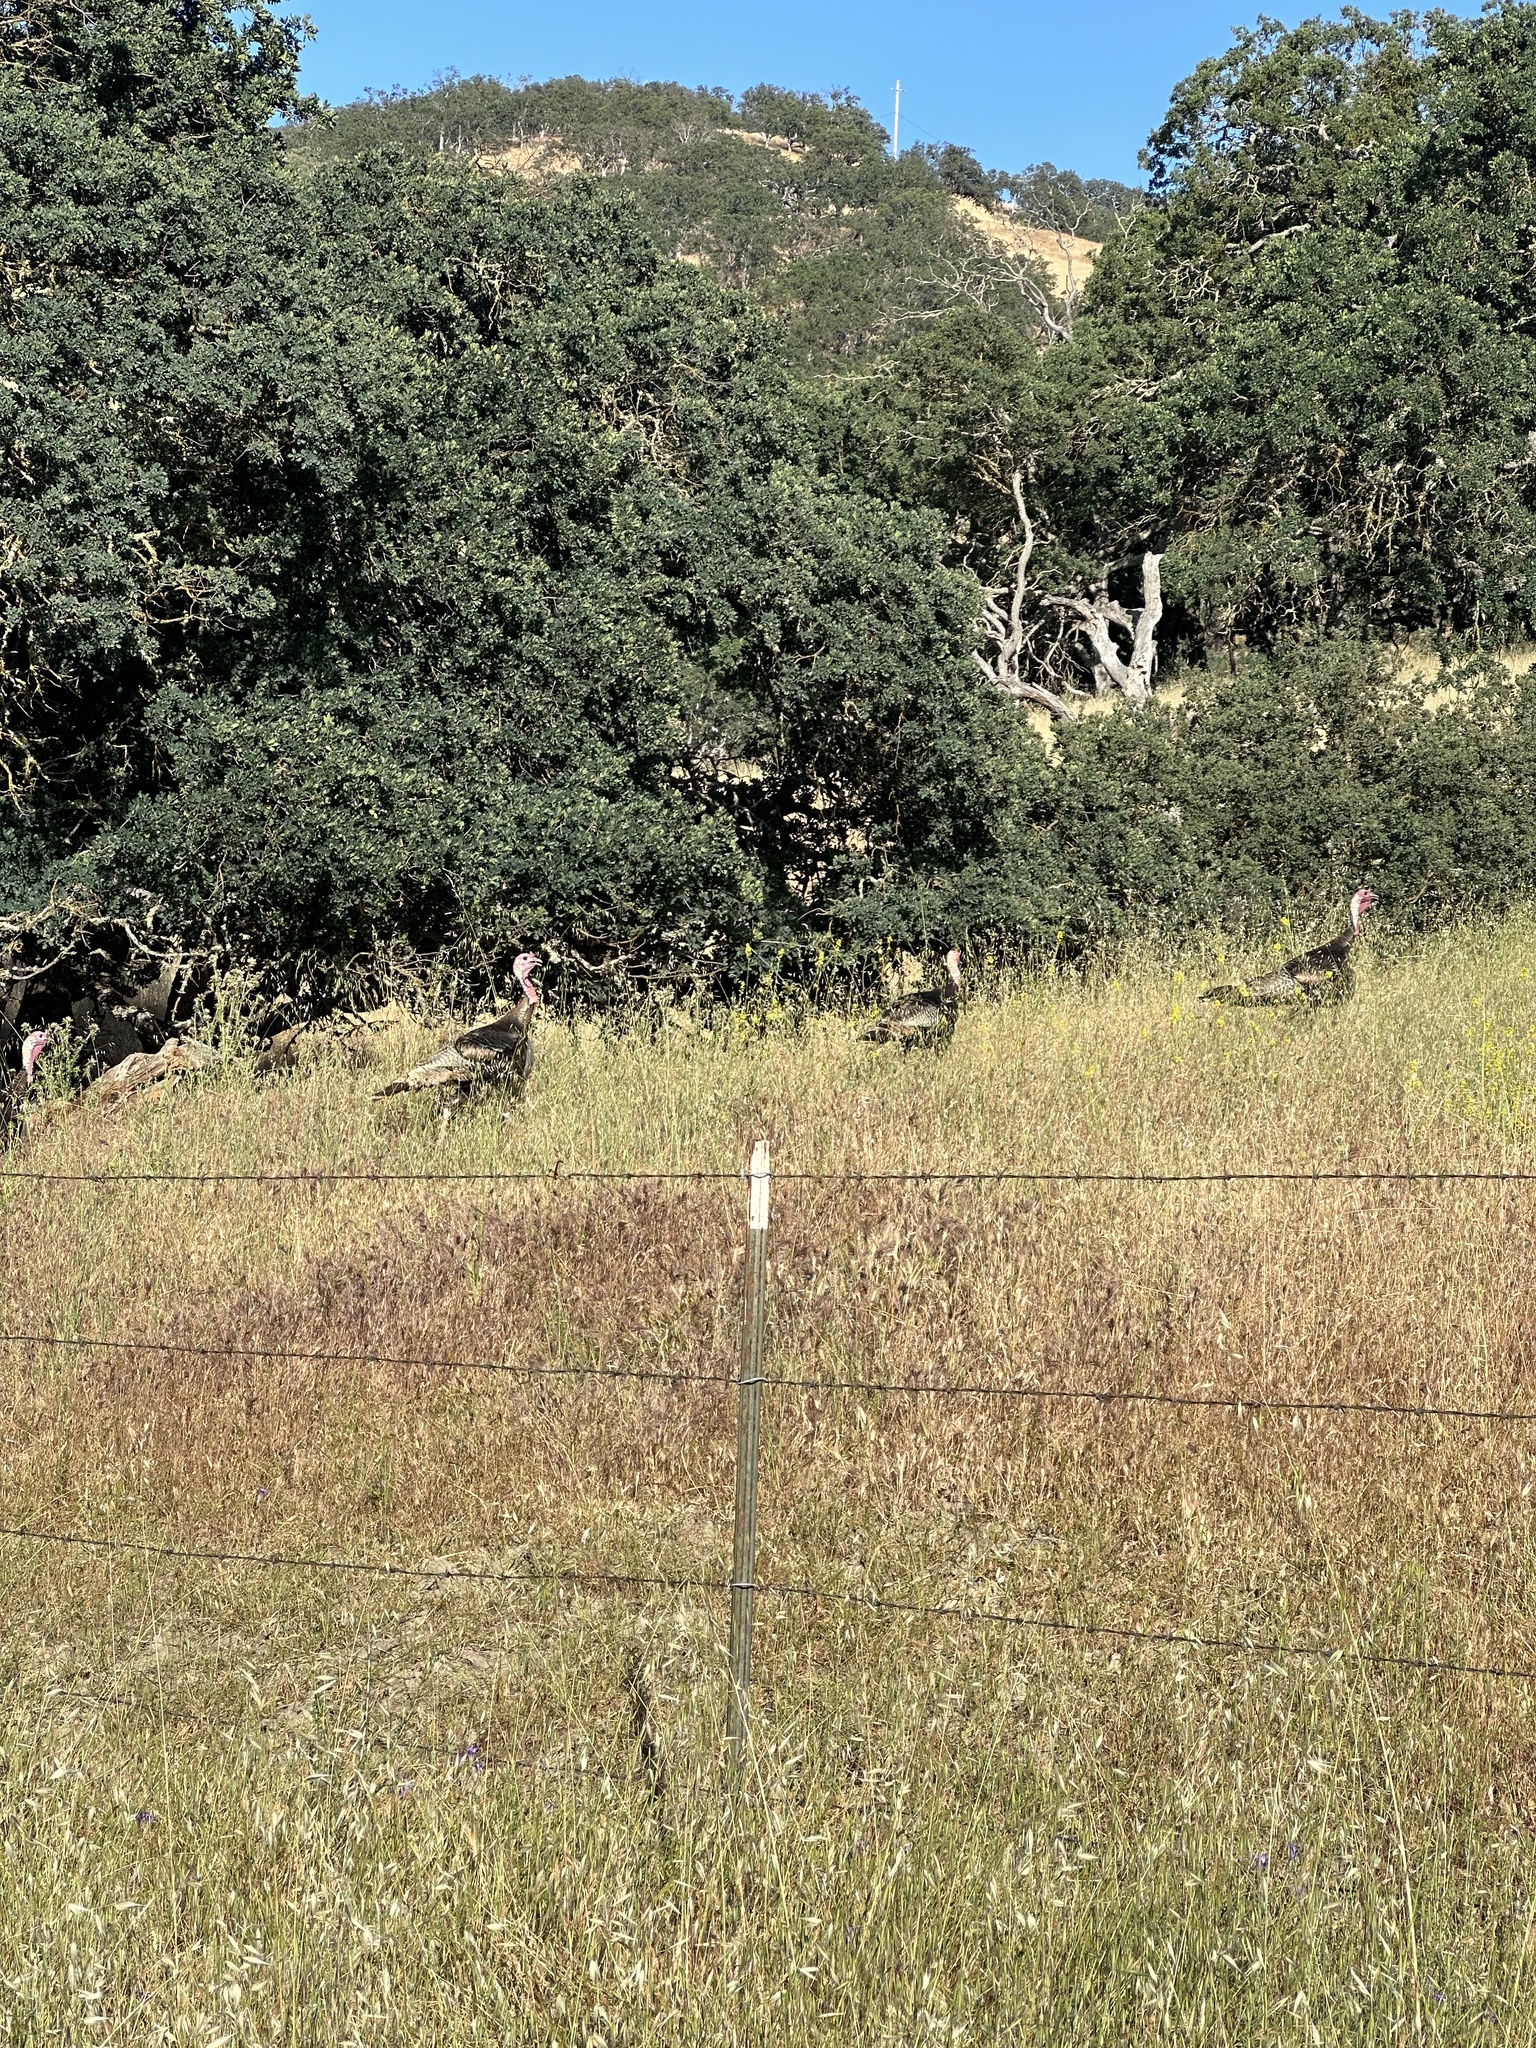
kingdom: Animalia
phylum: Chordata
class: Aves
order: Galliformes
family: Phasianidae
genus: Meleagris
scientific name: Meleagris gallopavo
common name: Wild turkey
